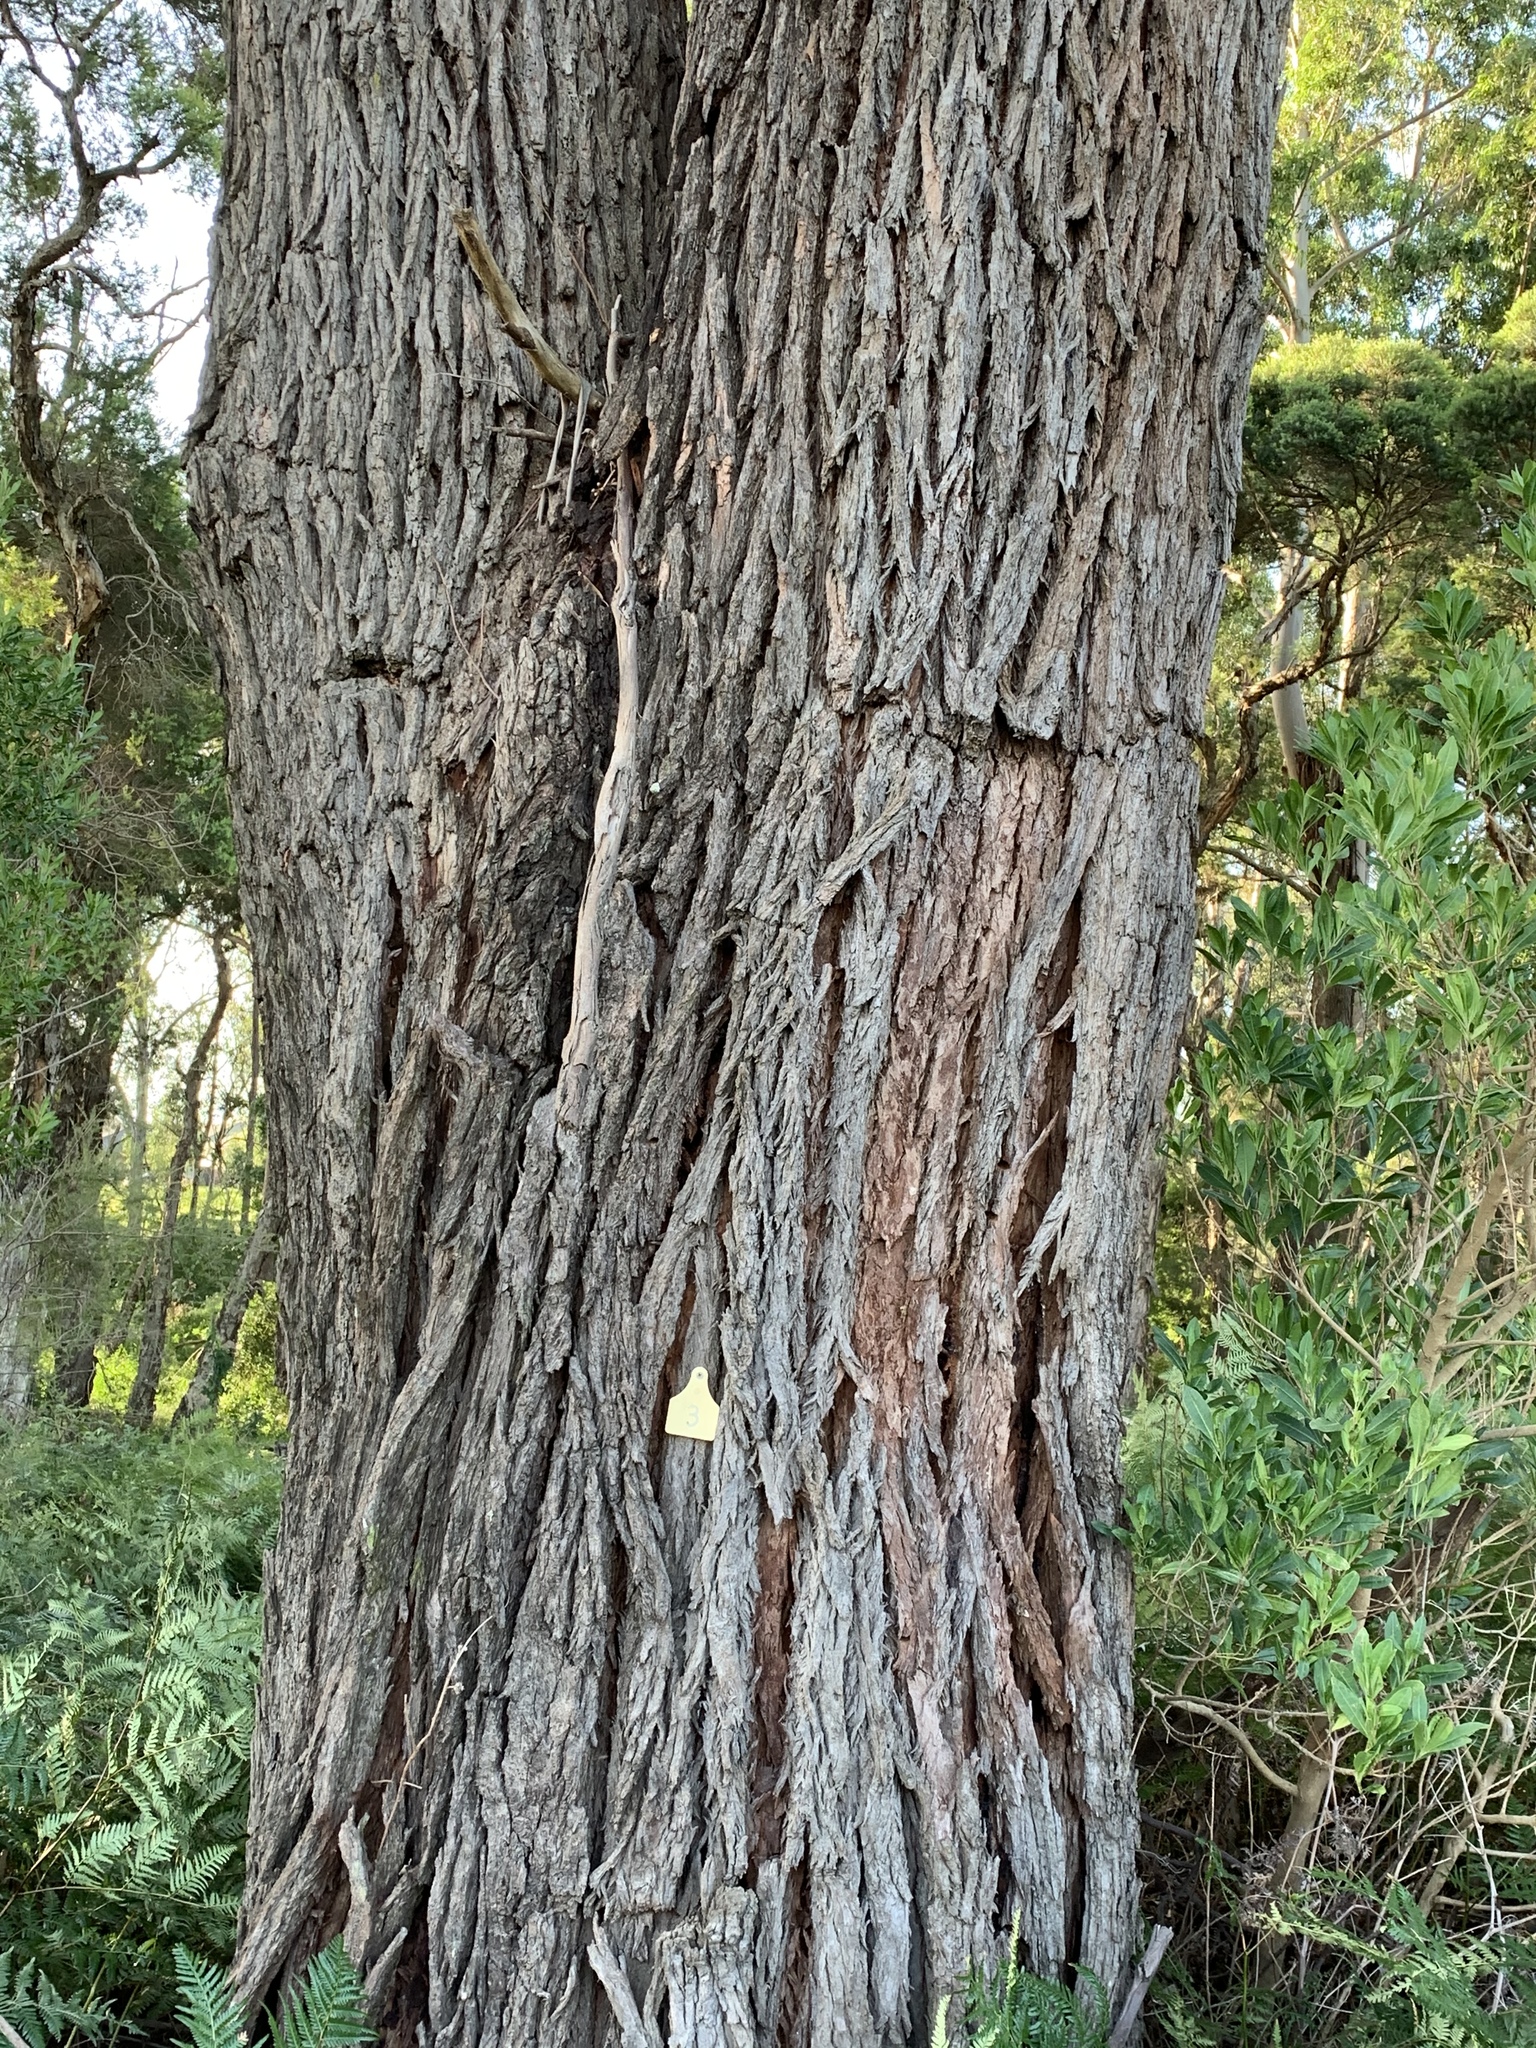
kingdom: Plantae
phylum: Tracheophyta
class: Magnoliopsida
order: Myrtales
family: Myrtaceae
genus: Eucalyptus
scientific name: Eucalyptus botryoides
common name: Bangalay
